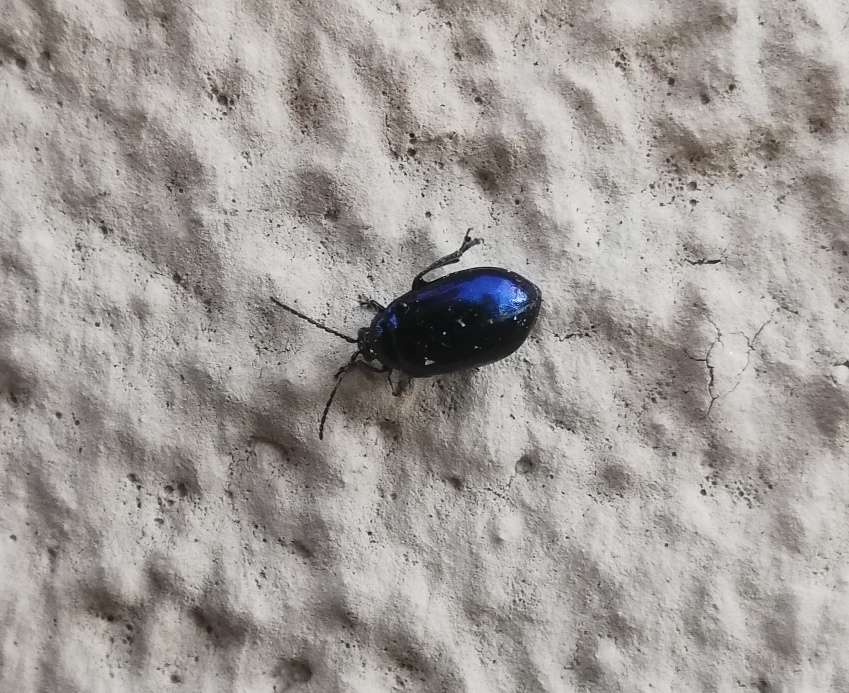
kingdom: Animalia
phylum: Arthropoda
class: Insecta
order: Coleoptera
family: Chrysomelidae
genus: Agelastica
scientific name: Agelastica alni
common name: Alder leaf beetle
